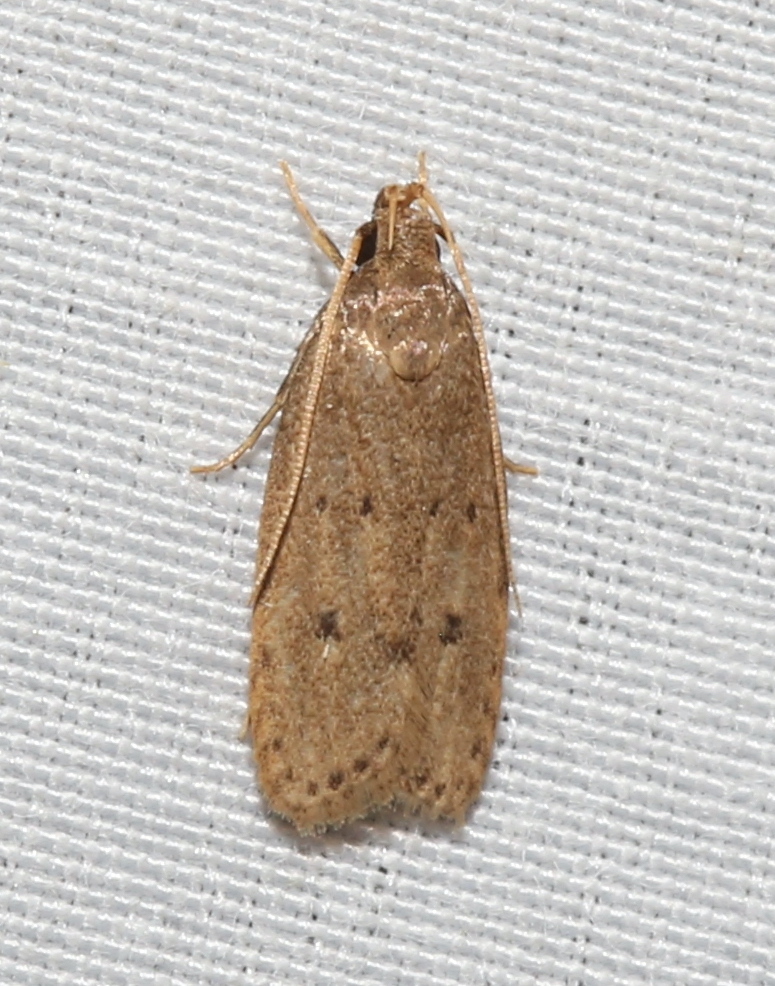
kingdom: Animalia
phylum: Arthropoda
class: Insecta
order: Lepidoptera
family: Autostichidae
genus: Autosticha
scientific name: Autosticha kyotensis
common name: Kyoto moth
